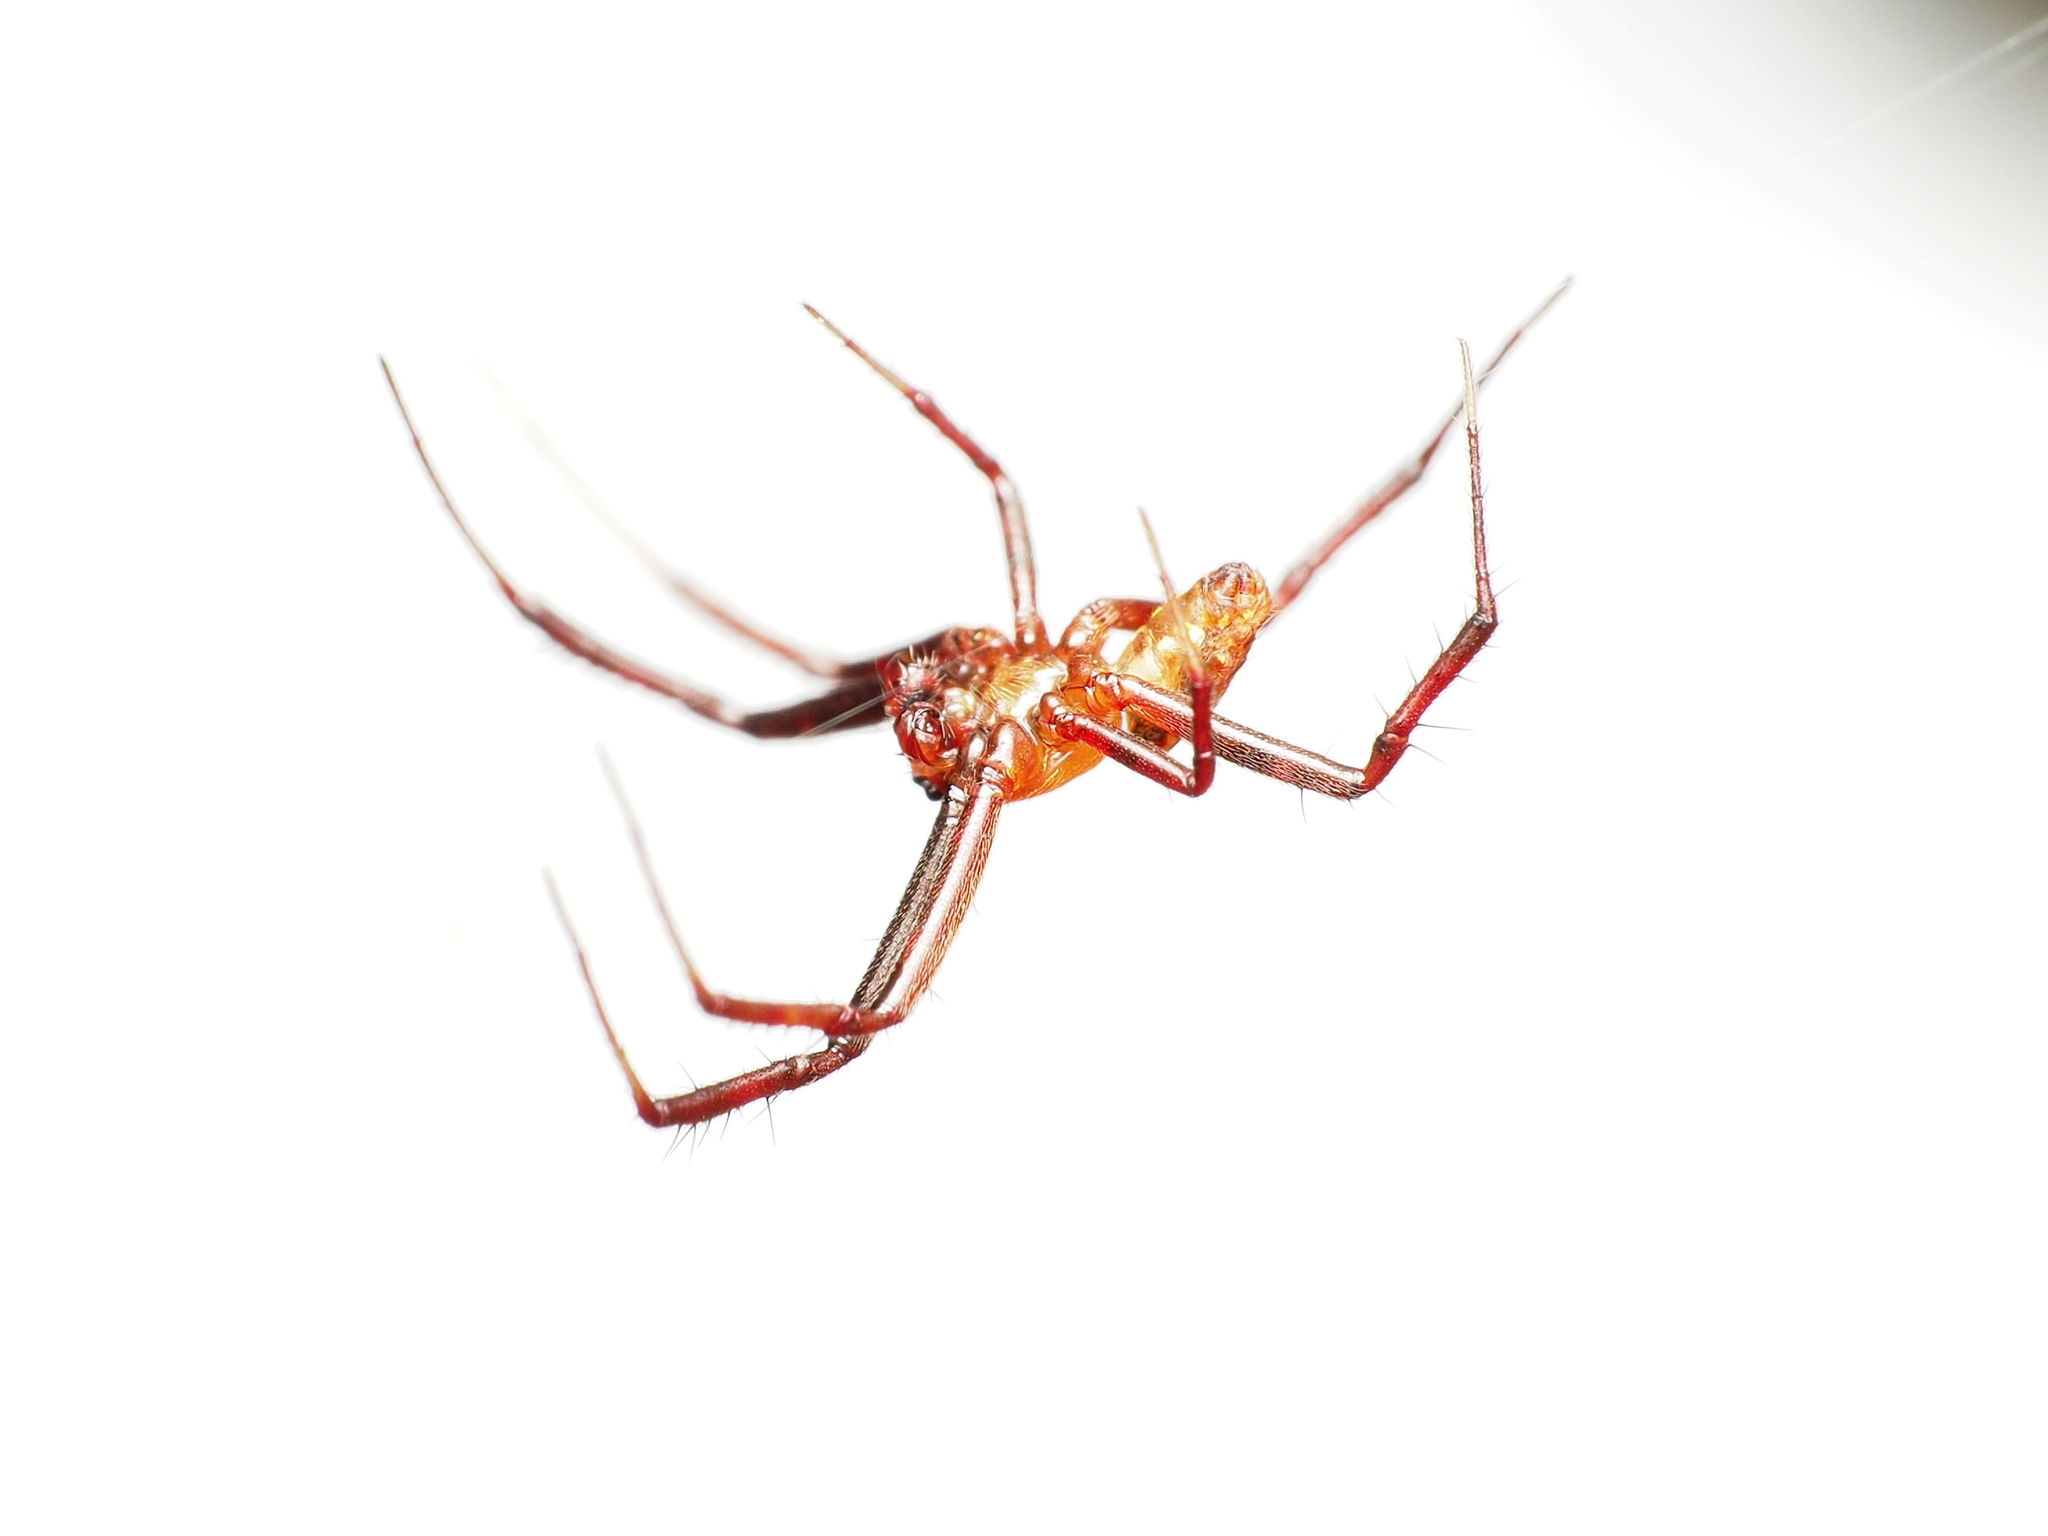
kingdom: Animalia
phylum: Arthropoda
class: Arachnida
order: Araneae
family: Araneidae
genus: Gea
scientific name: Gea heptagon
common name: Orb weavers
